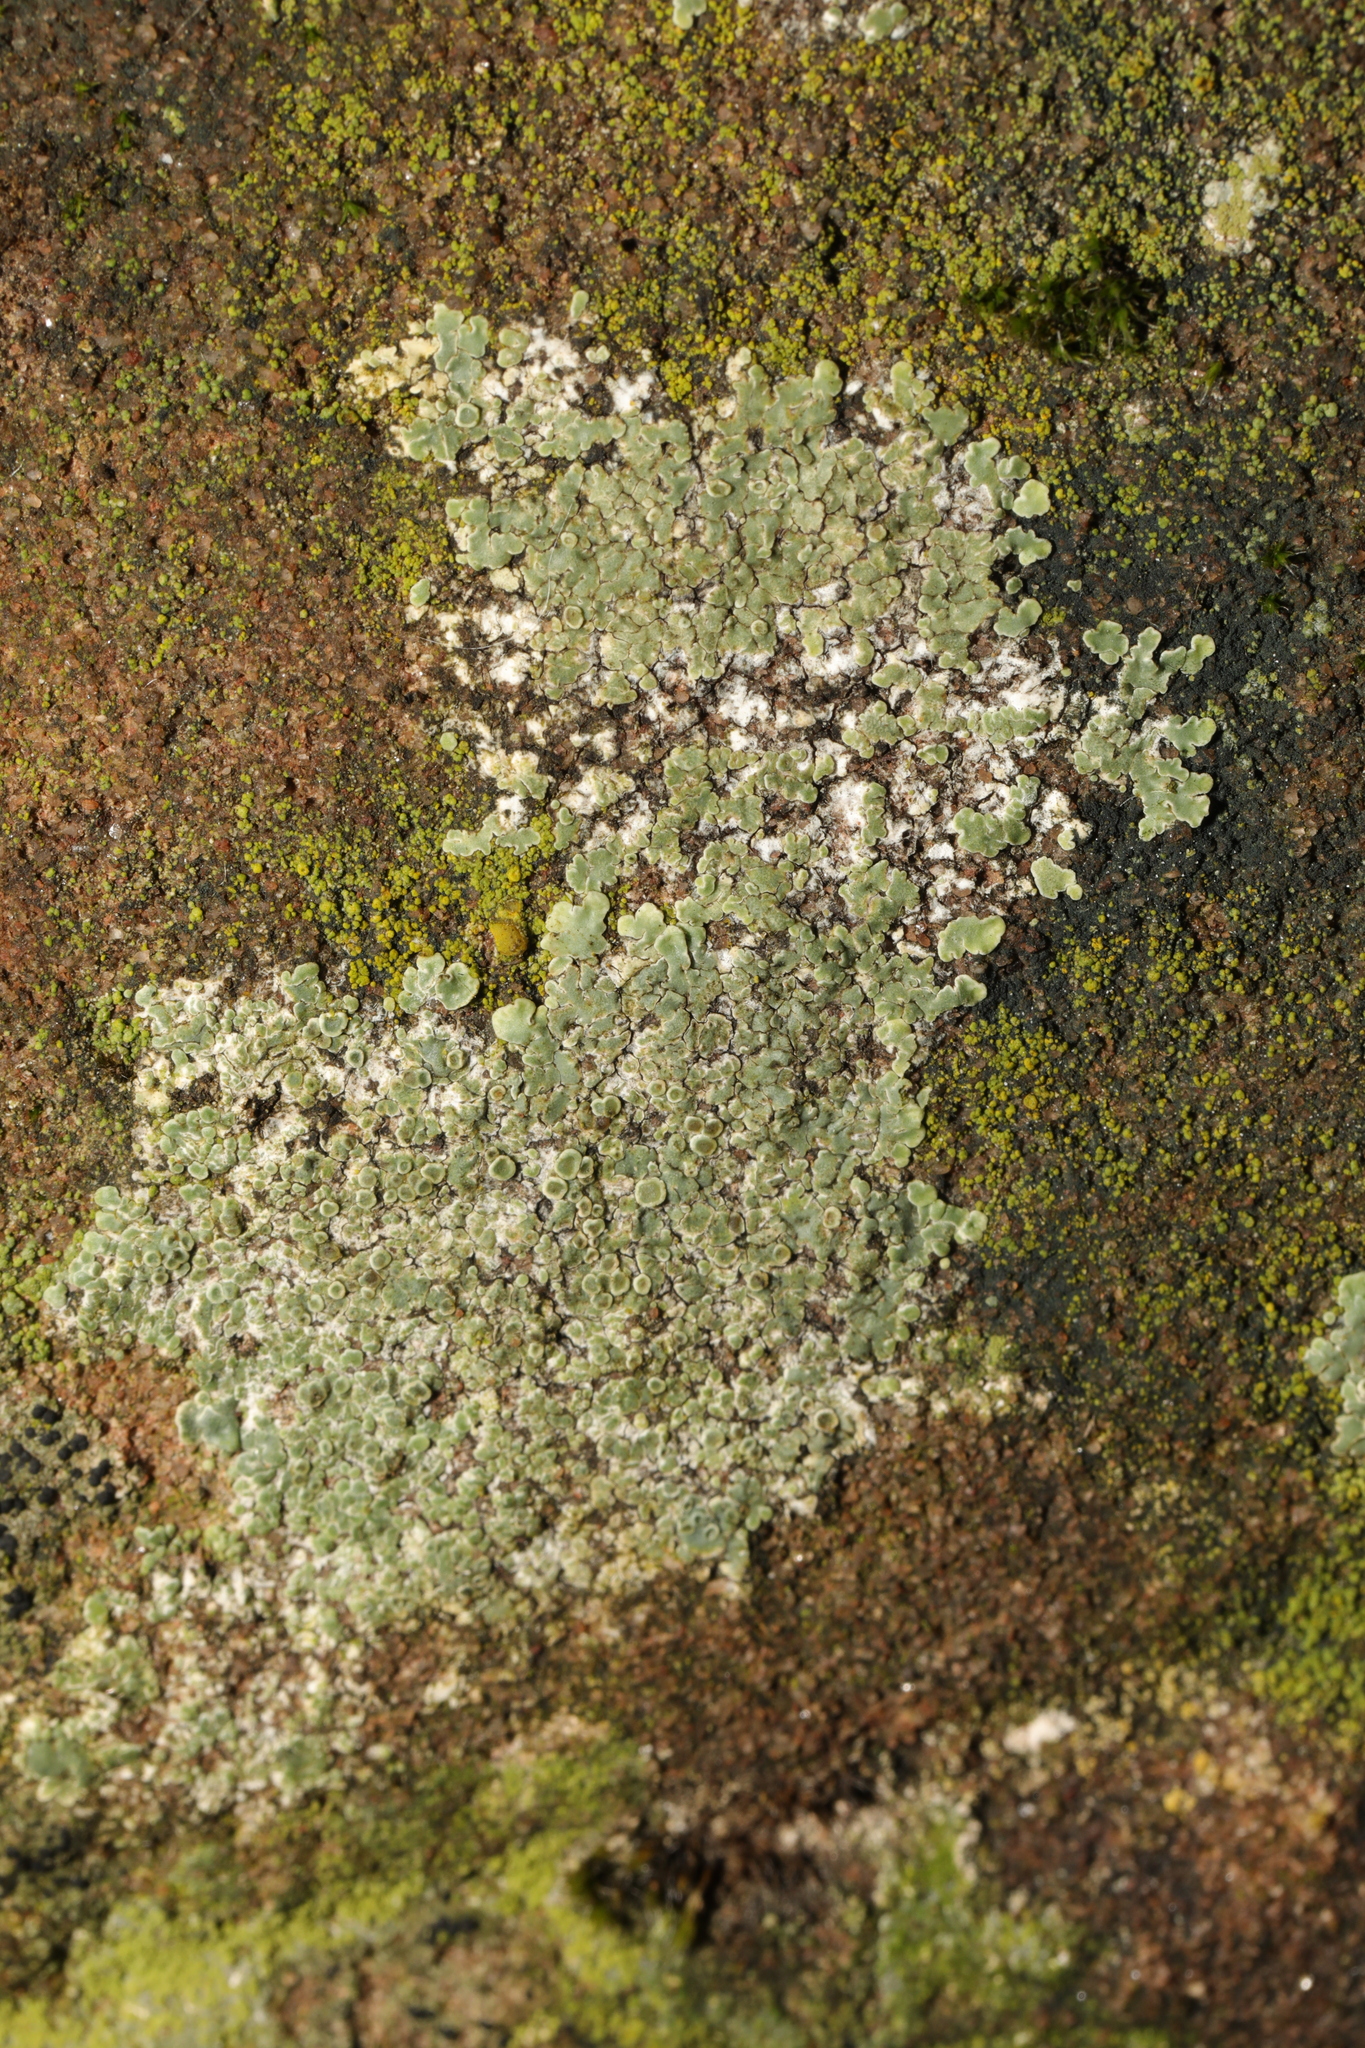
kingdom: Fungi
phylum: Ascomycota
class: Lecanoromycetes
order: Lecanorales
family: Lecanoraceae
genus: Protoparmeliopsis
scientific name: Protoparmeliopsis muralis
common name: Stonewall rim lichen
